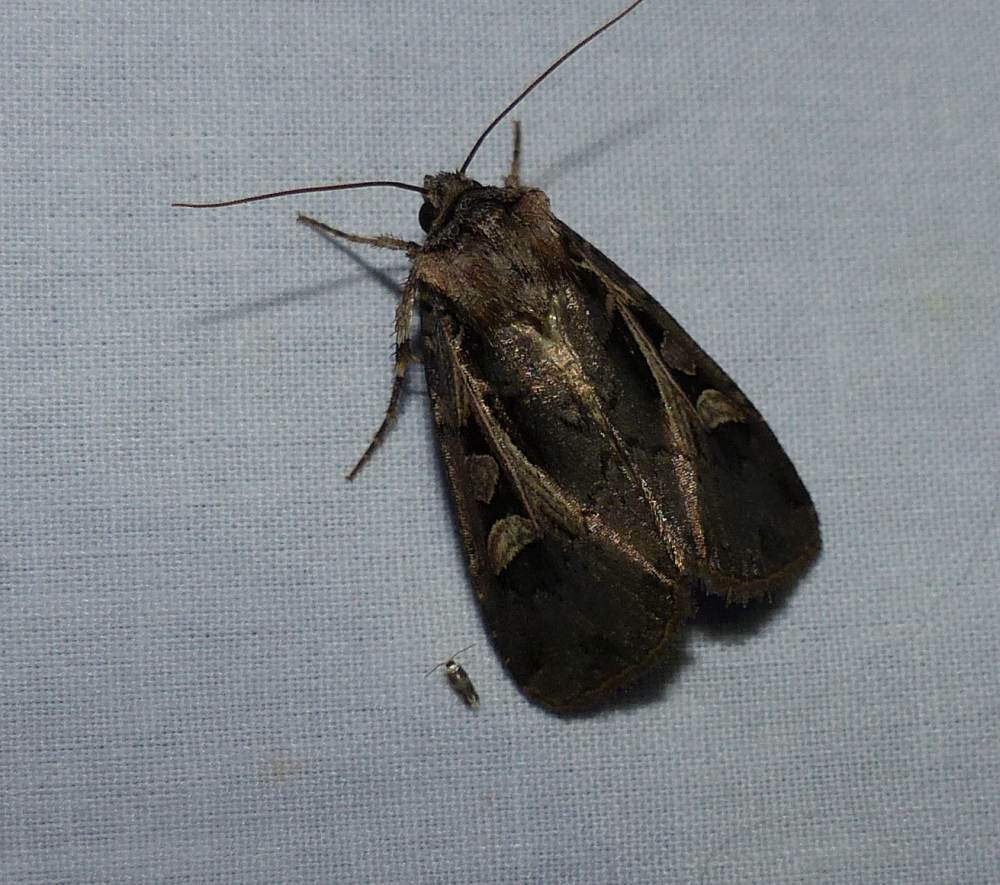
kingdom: Animalia
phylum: Arthropoda
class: Insecta
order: Lepidoptera
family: Noctuidae
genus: Feltia
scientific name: Feltia herilis
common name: Master's dart
